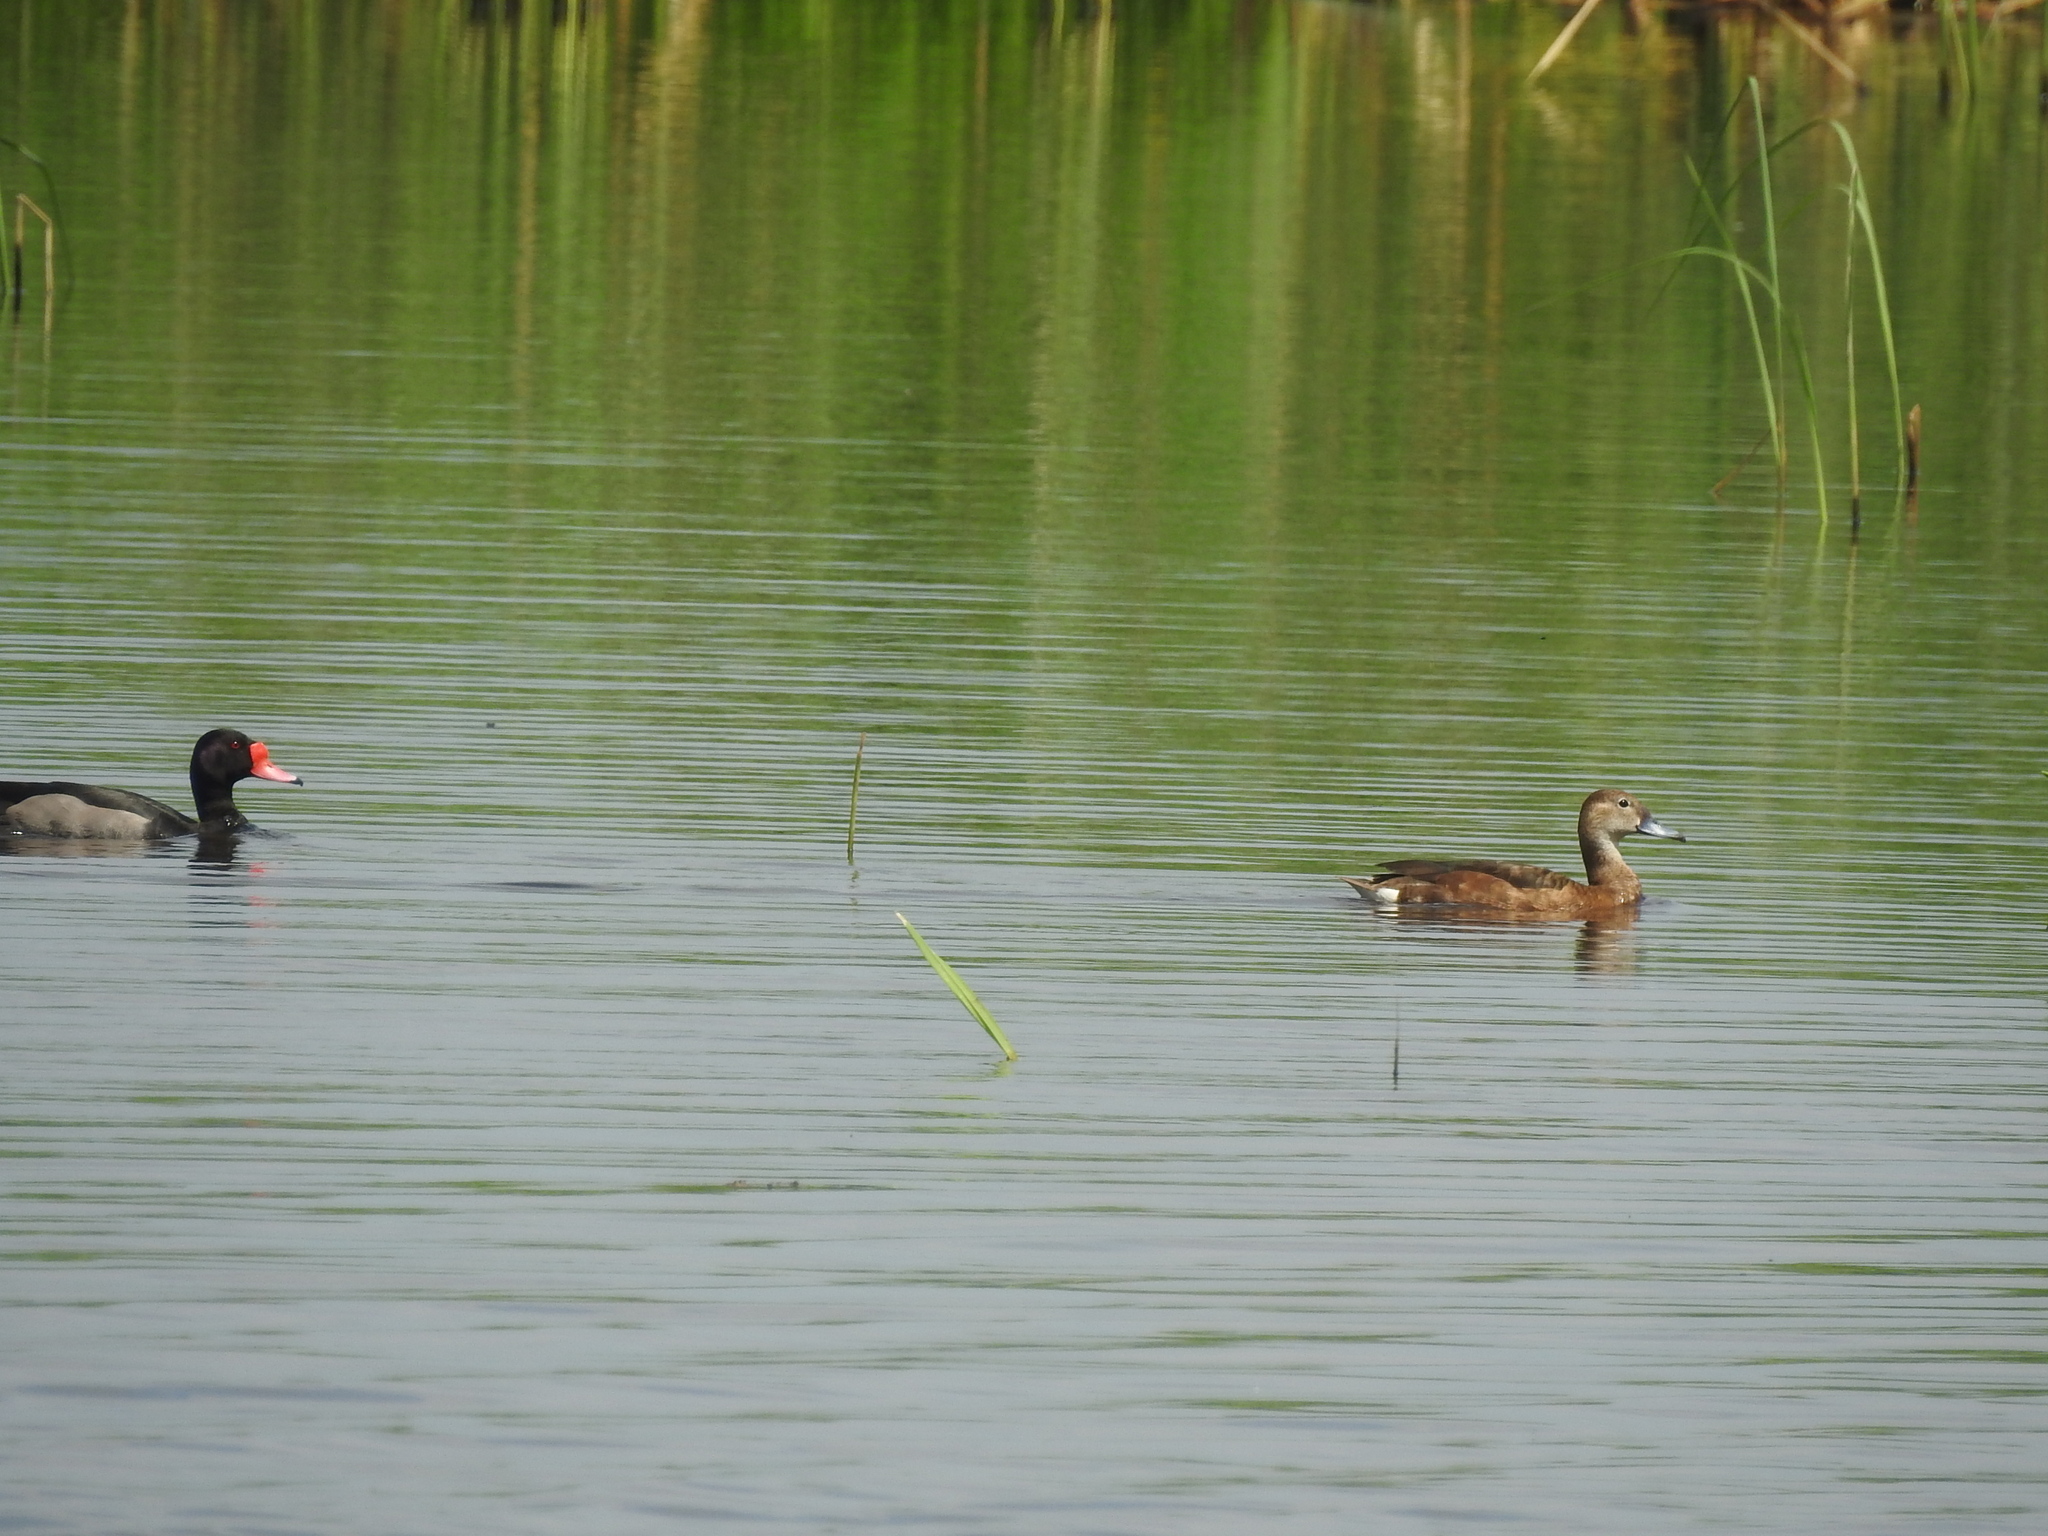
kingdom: Animalia
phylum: Chordata
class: Aves
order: Anseriformes
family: Anatidae
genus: Netta
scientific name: Netta peposaca
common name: Rosy-billed pochard
